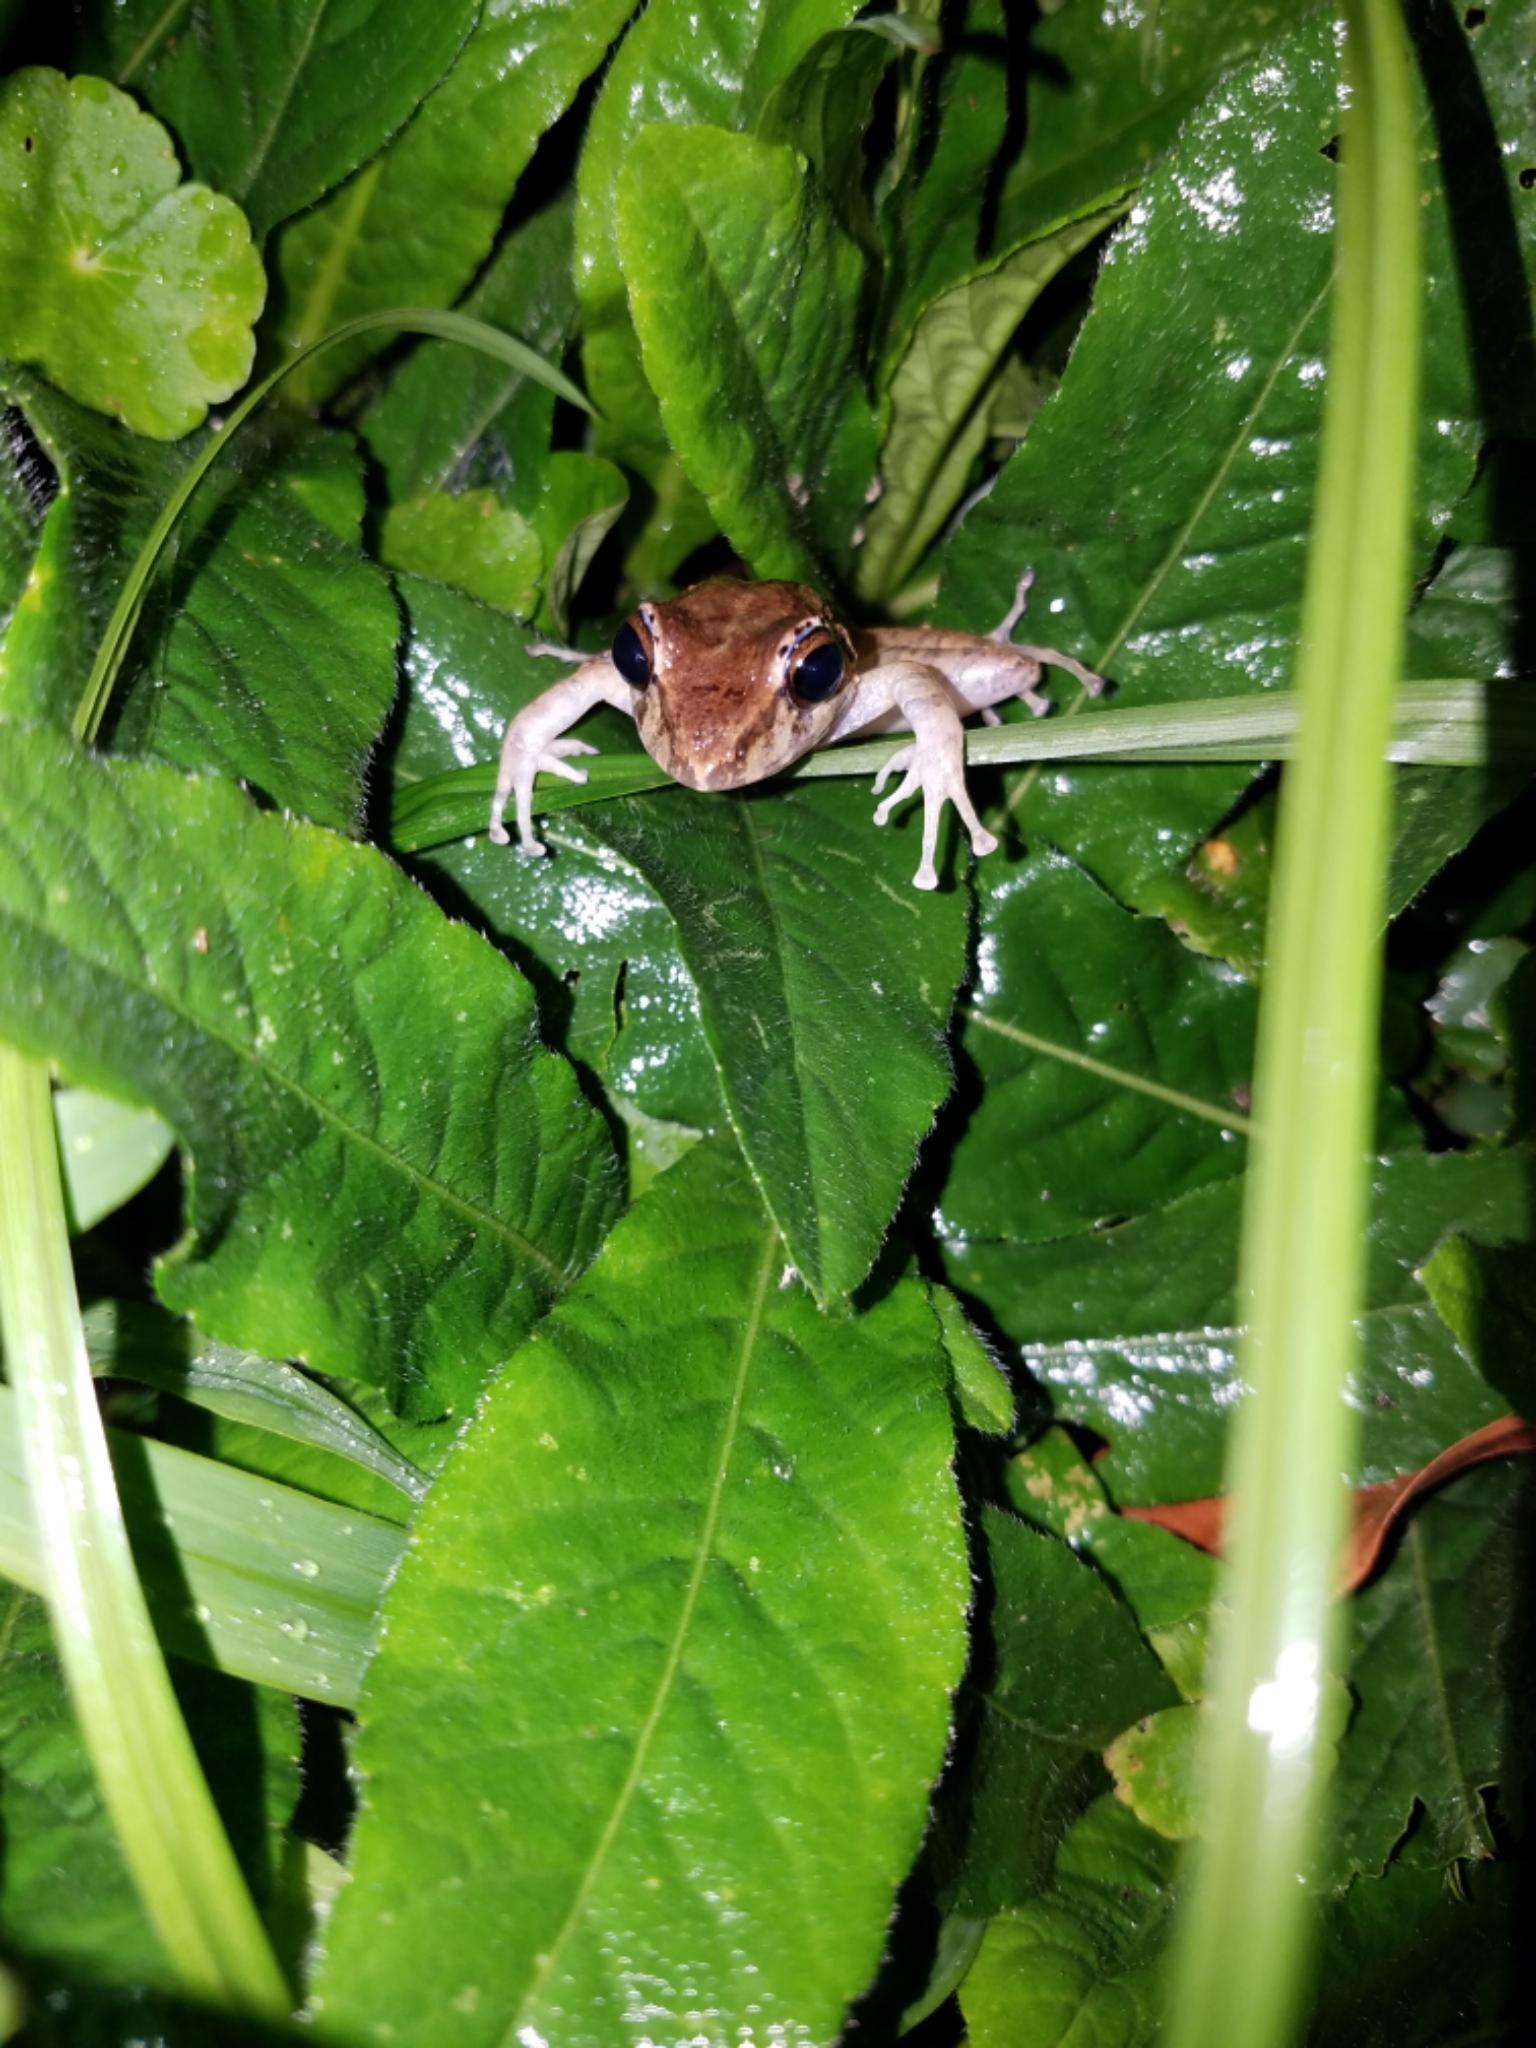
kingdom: Animalia
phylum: Chordata
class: Amphibia
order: Anura
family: Craugastoridae
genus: Craugastor
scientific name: Craugastor crassidigitus
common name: Isla bonita robber frog
